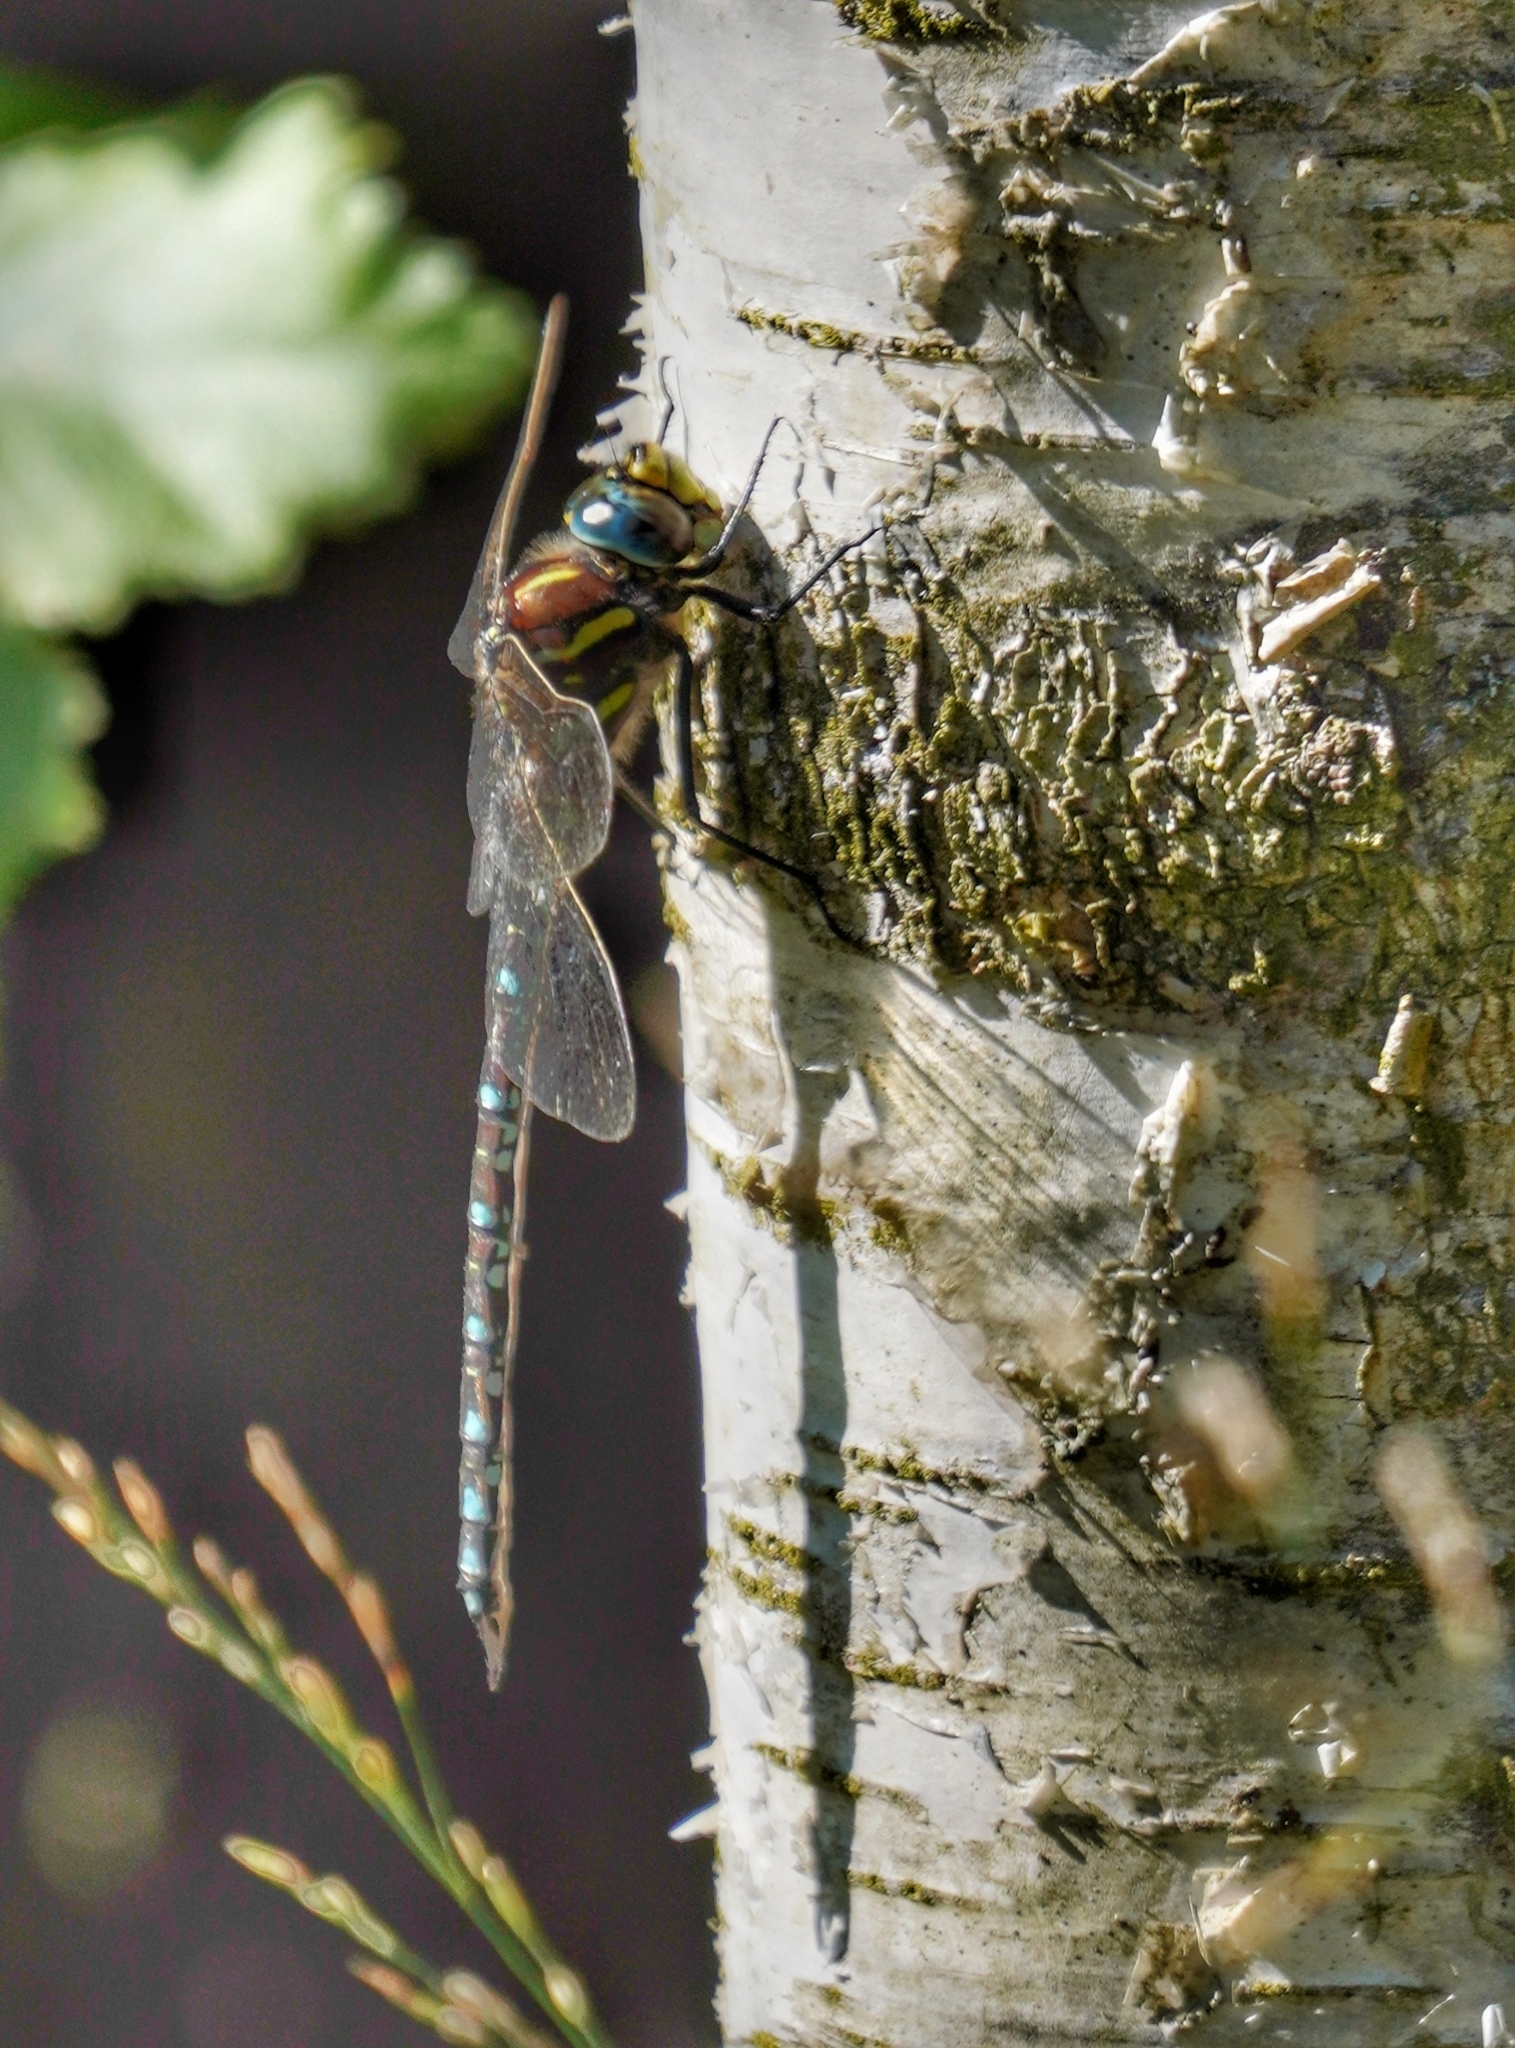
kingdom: Animalia
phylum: Arthropoda
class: Insecta
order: Odonata
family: Aeshnidae
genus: Aeshna
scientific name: Aeshna juncea
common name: Moorland hawker
